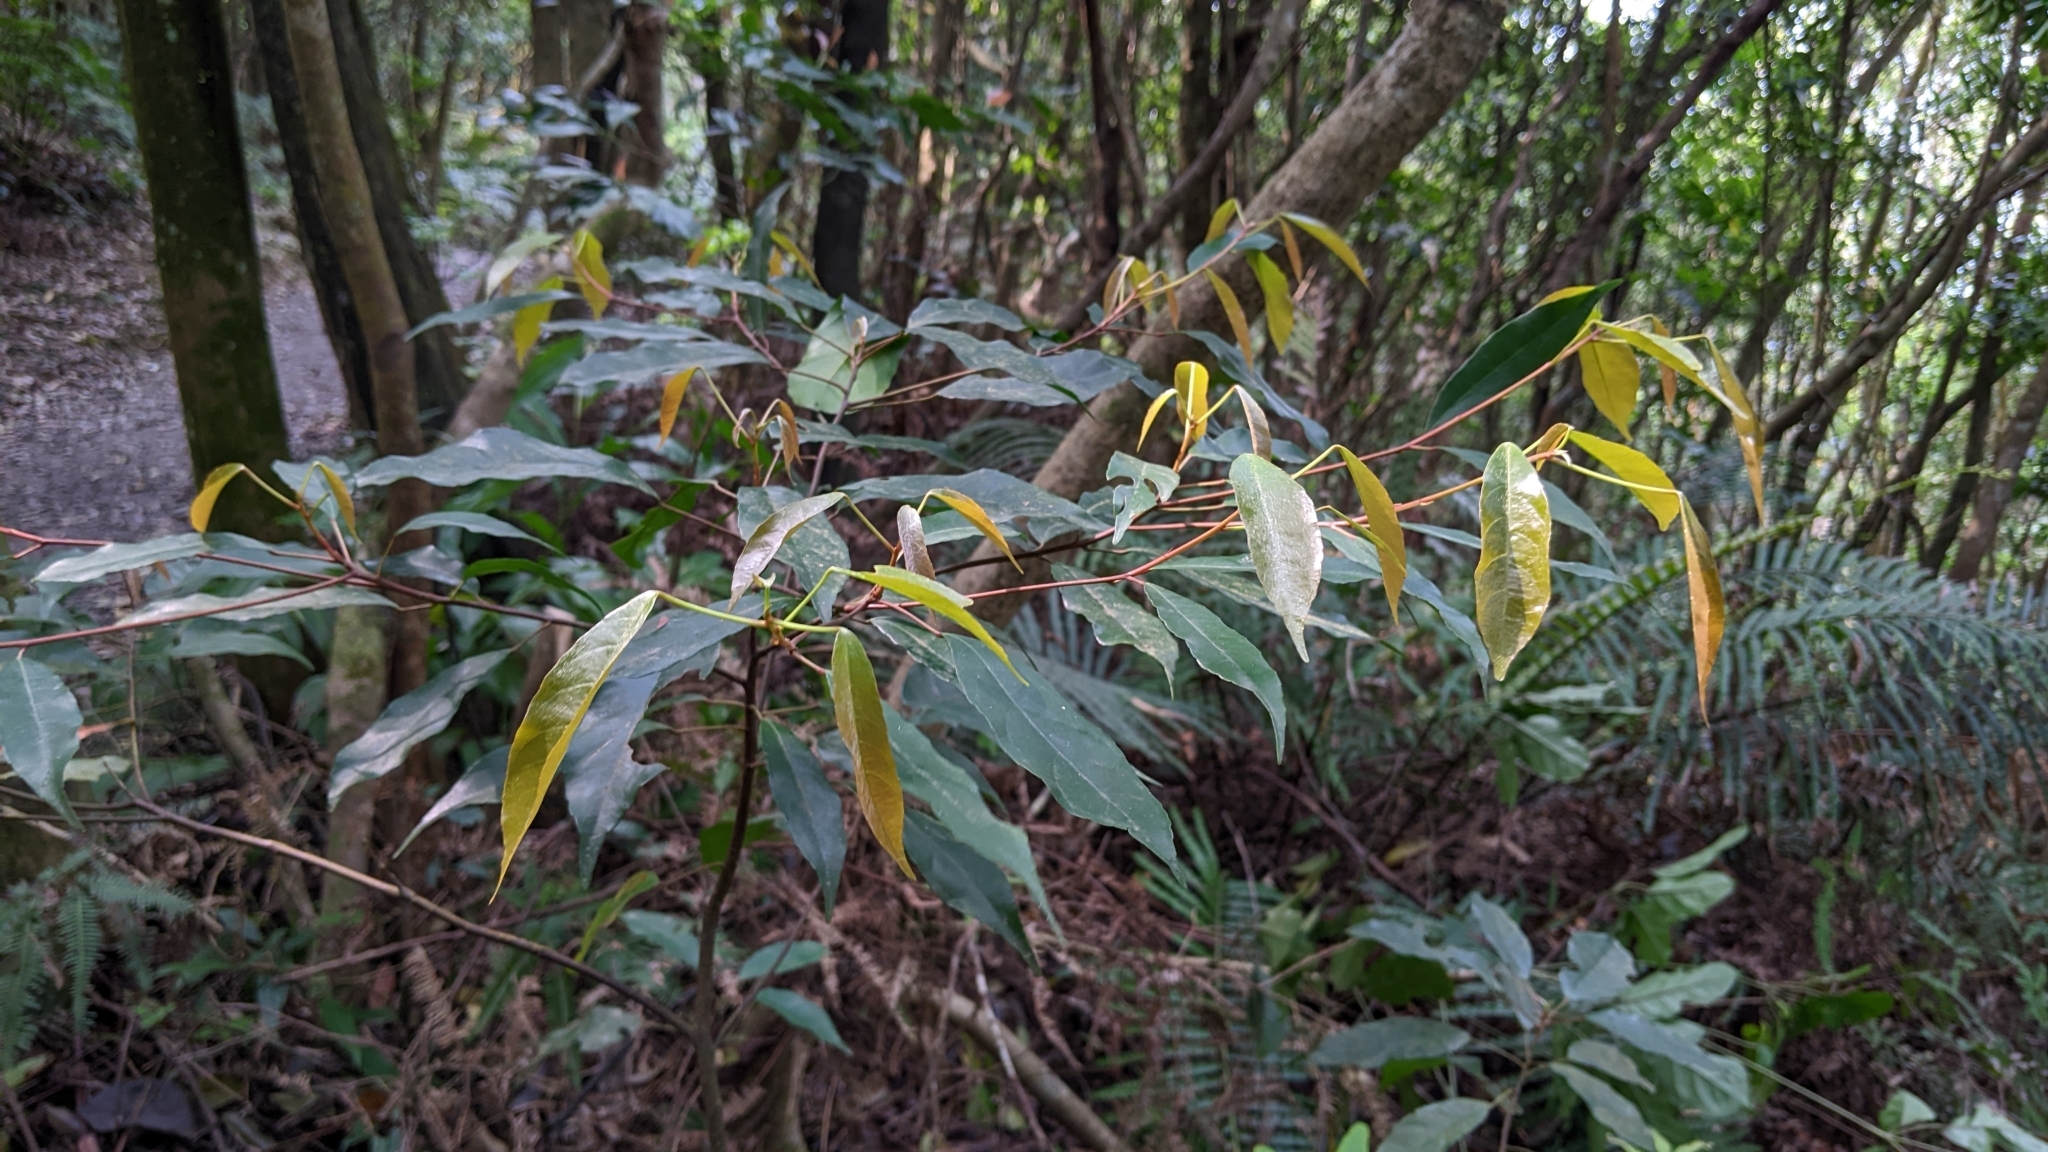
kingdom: Plantae
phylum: Tracheophyta
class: Magnoliopsida
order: Oxalidales
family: Elaeocarpaceae
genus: Elaeocarpus
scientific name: Elaeocarpus japonicus
